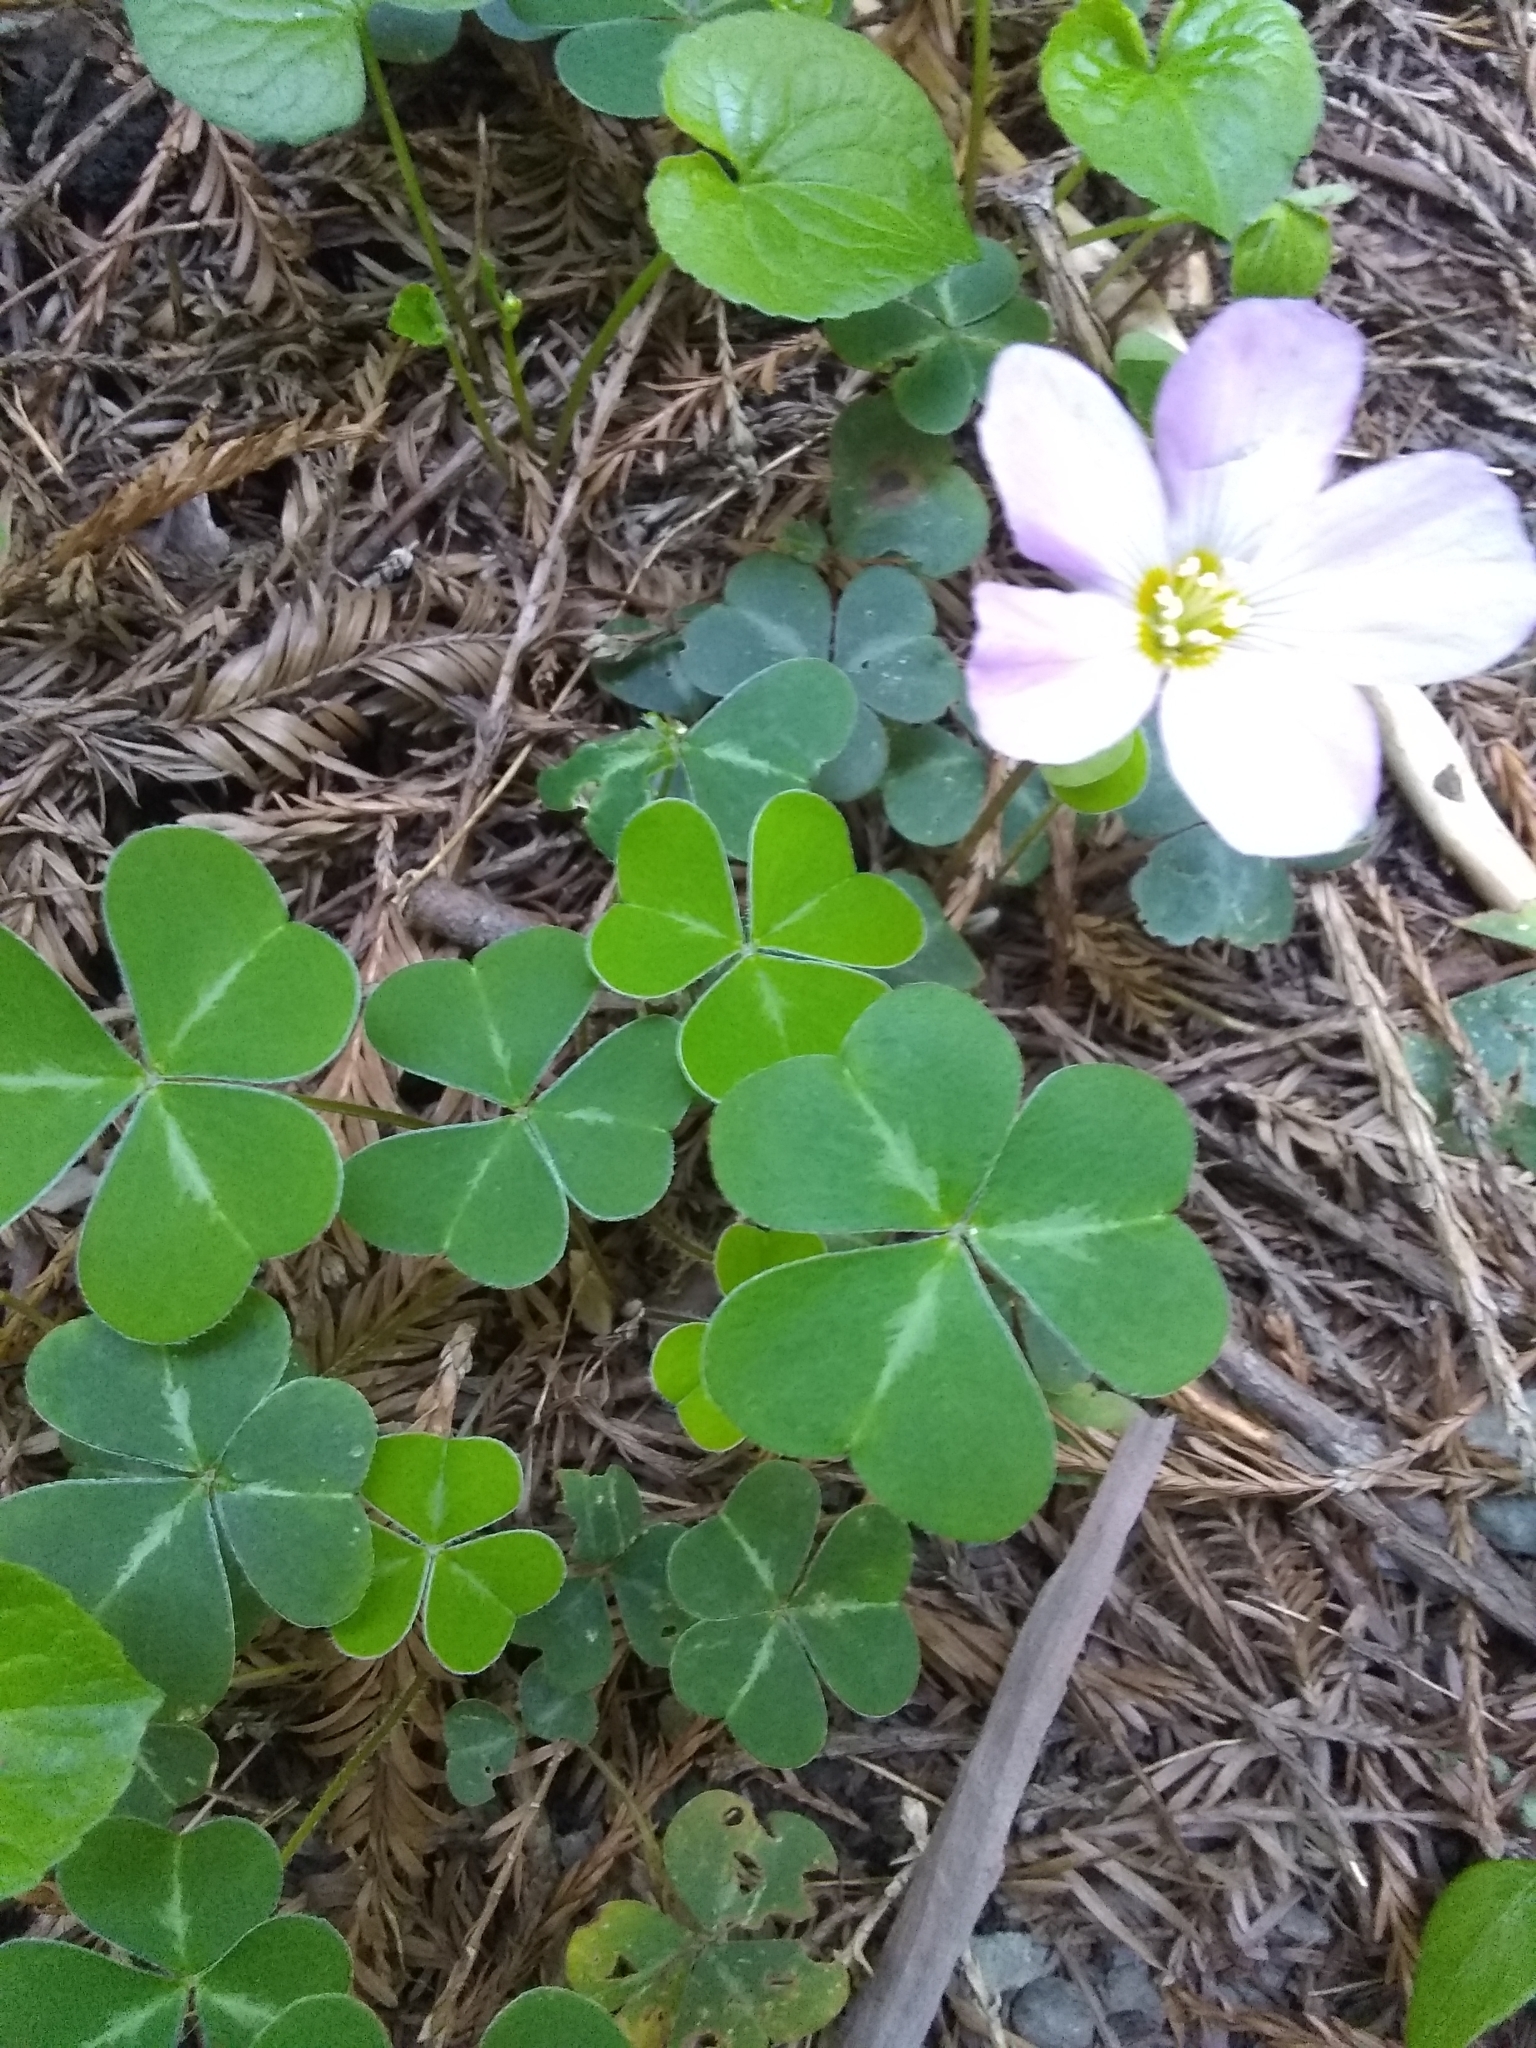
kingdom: Plantae
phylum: Tracheophyta
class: Magnoliopsida
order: Oxalidales
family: Oxalidaceae
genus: Oxalis
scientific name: Oxalis oregana
